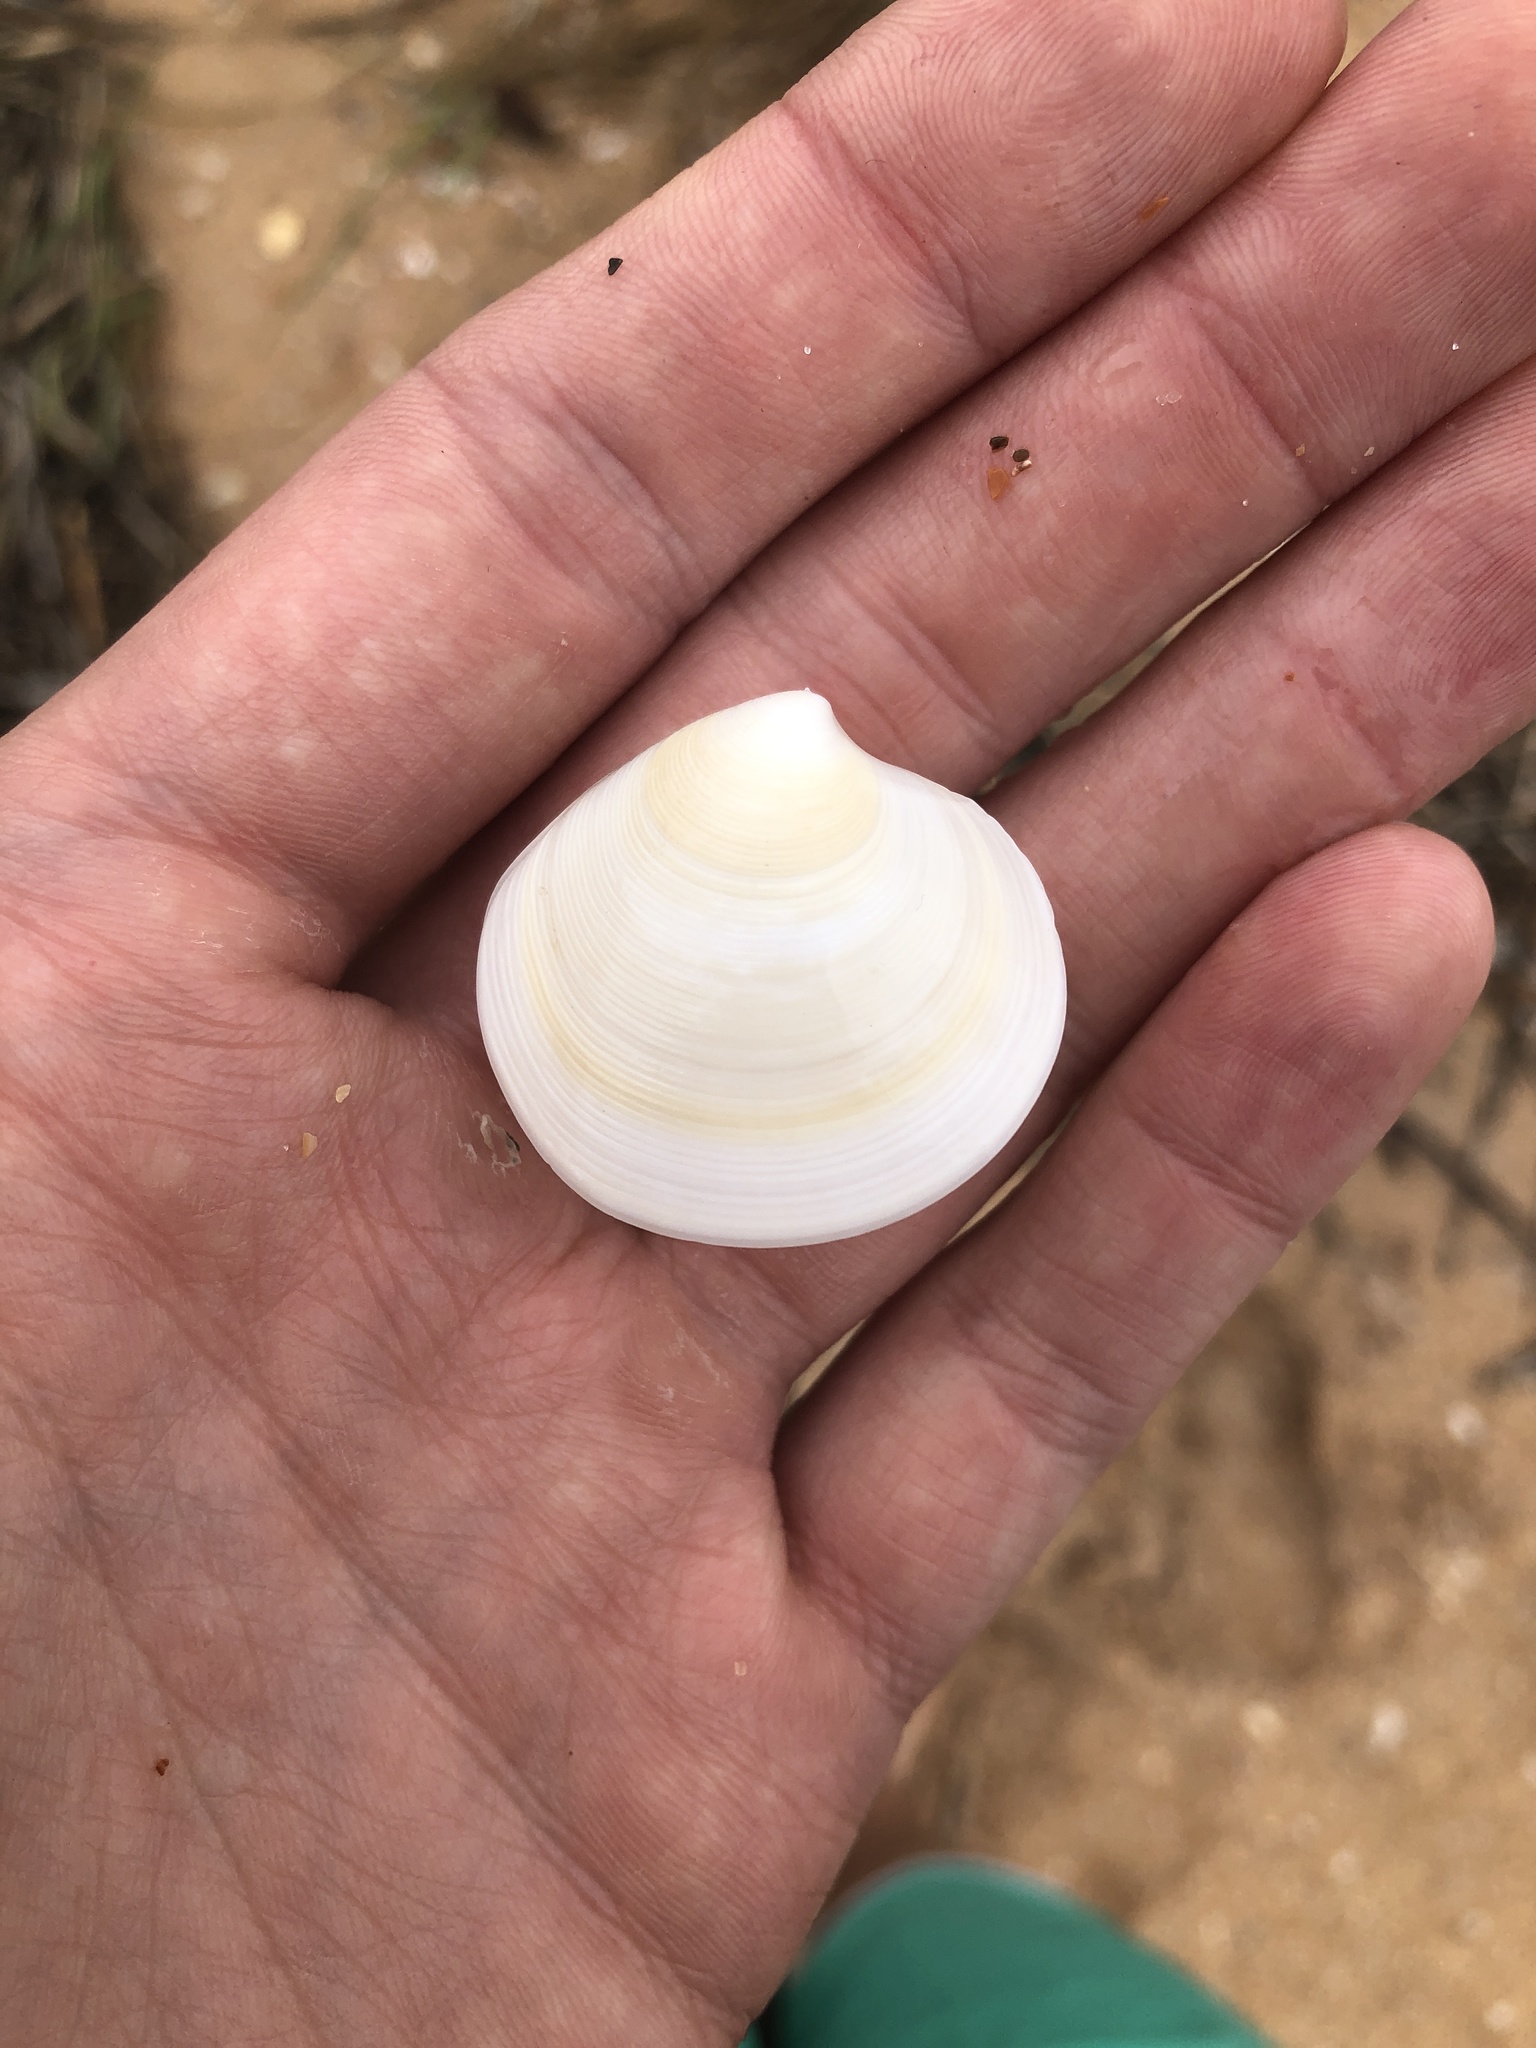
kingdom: Animalia
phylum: Mollusca
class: Bivalvia
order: Venerida
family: Veneridae
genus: Dosinia
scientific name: Dosinia discus
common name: Disk dosinia
